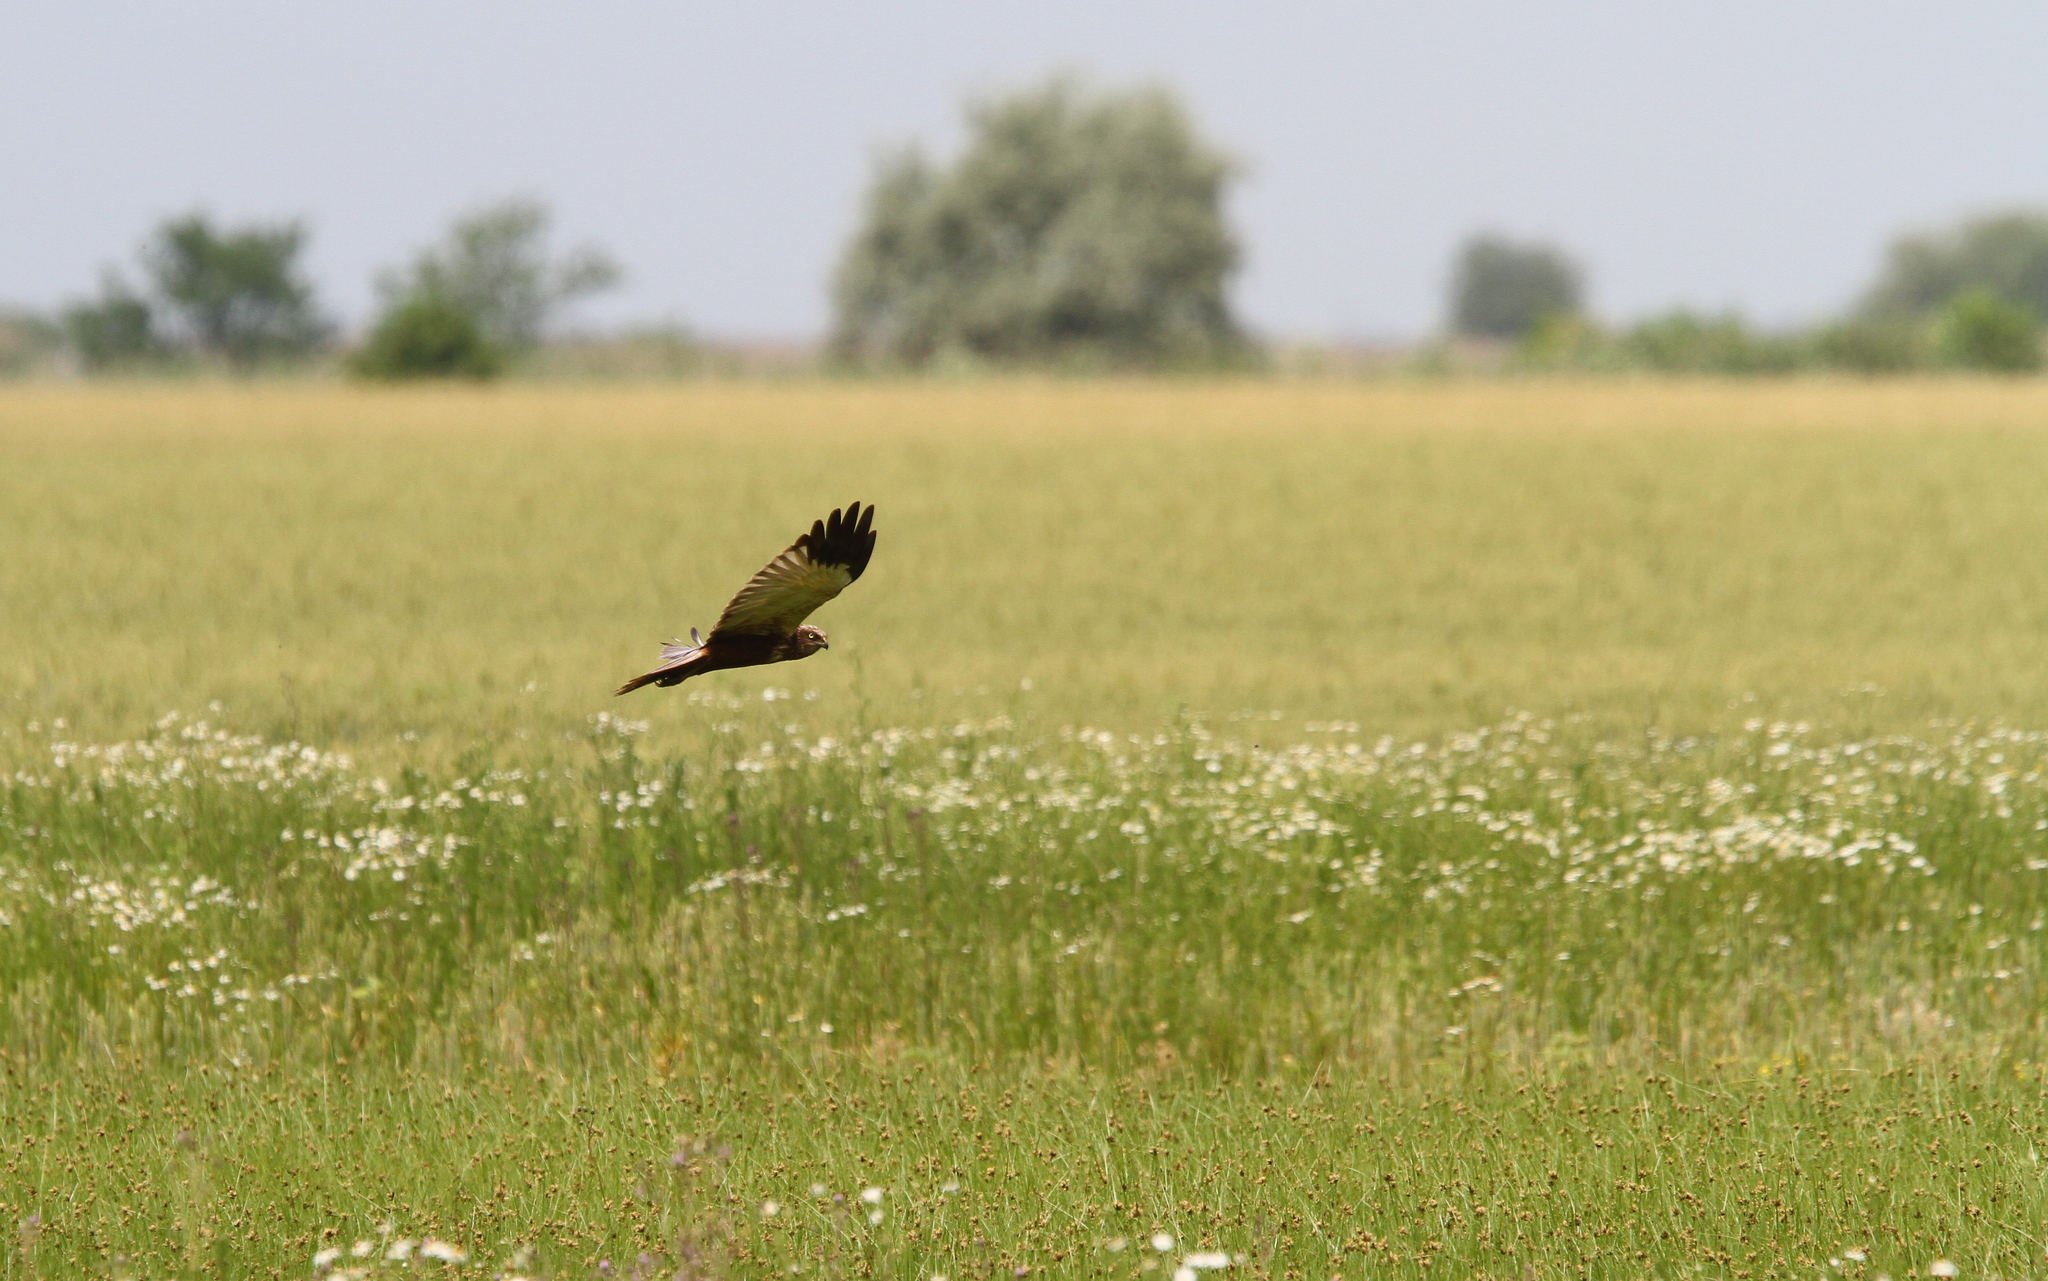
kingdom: Animalia
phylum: Chordata
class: Aves
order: Accipitriformes
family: Accipitridae
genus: Circus
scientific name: Circus aeruginosus
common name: Western marsh harrier
